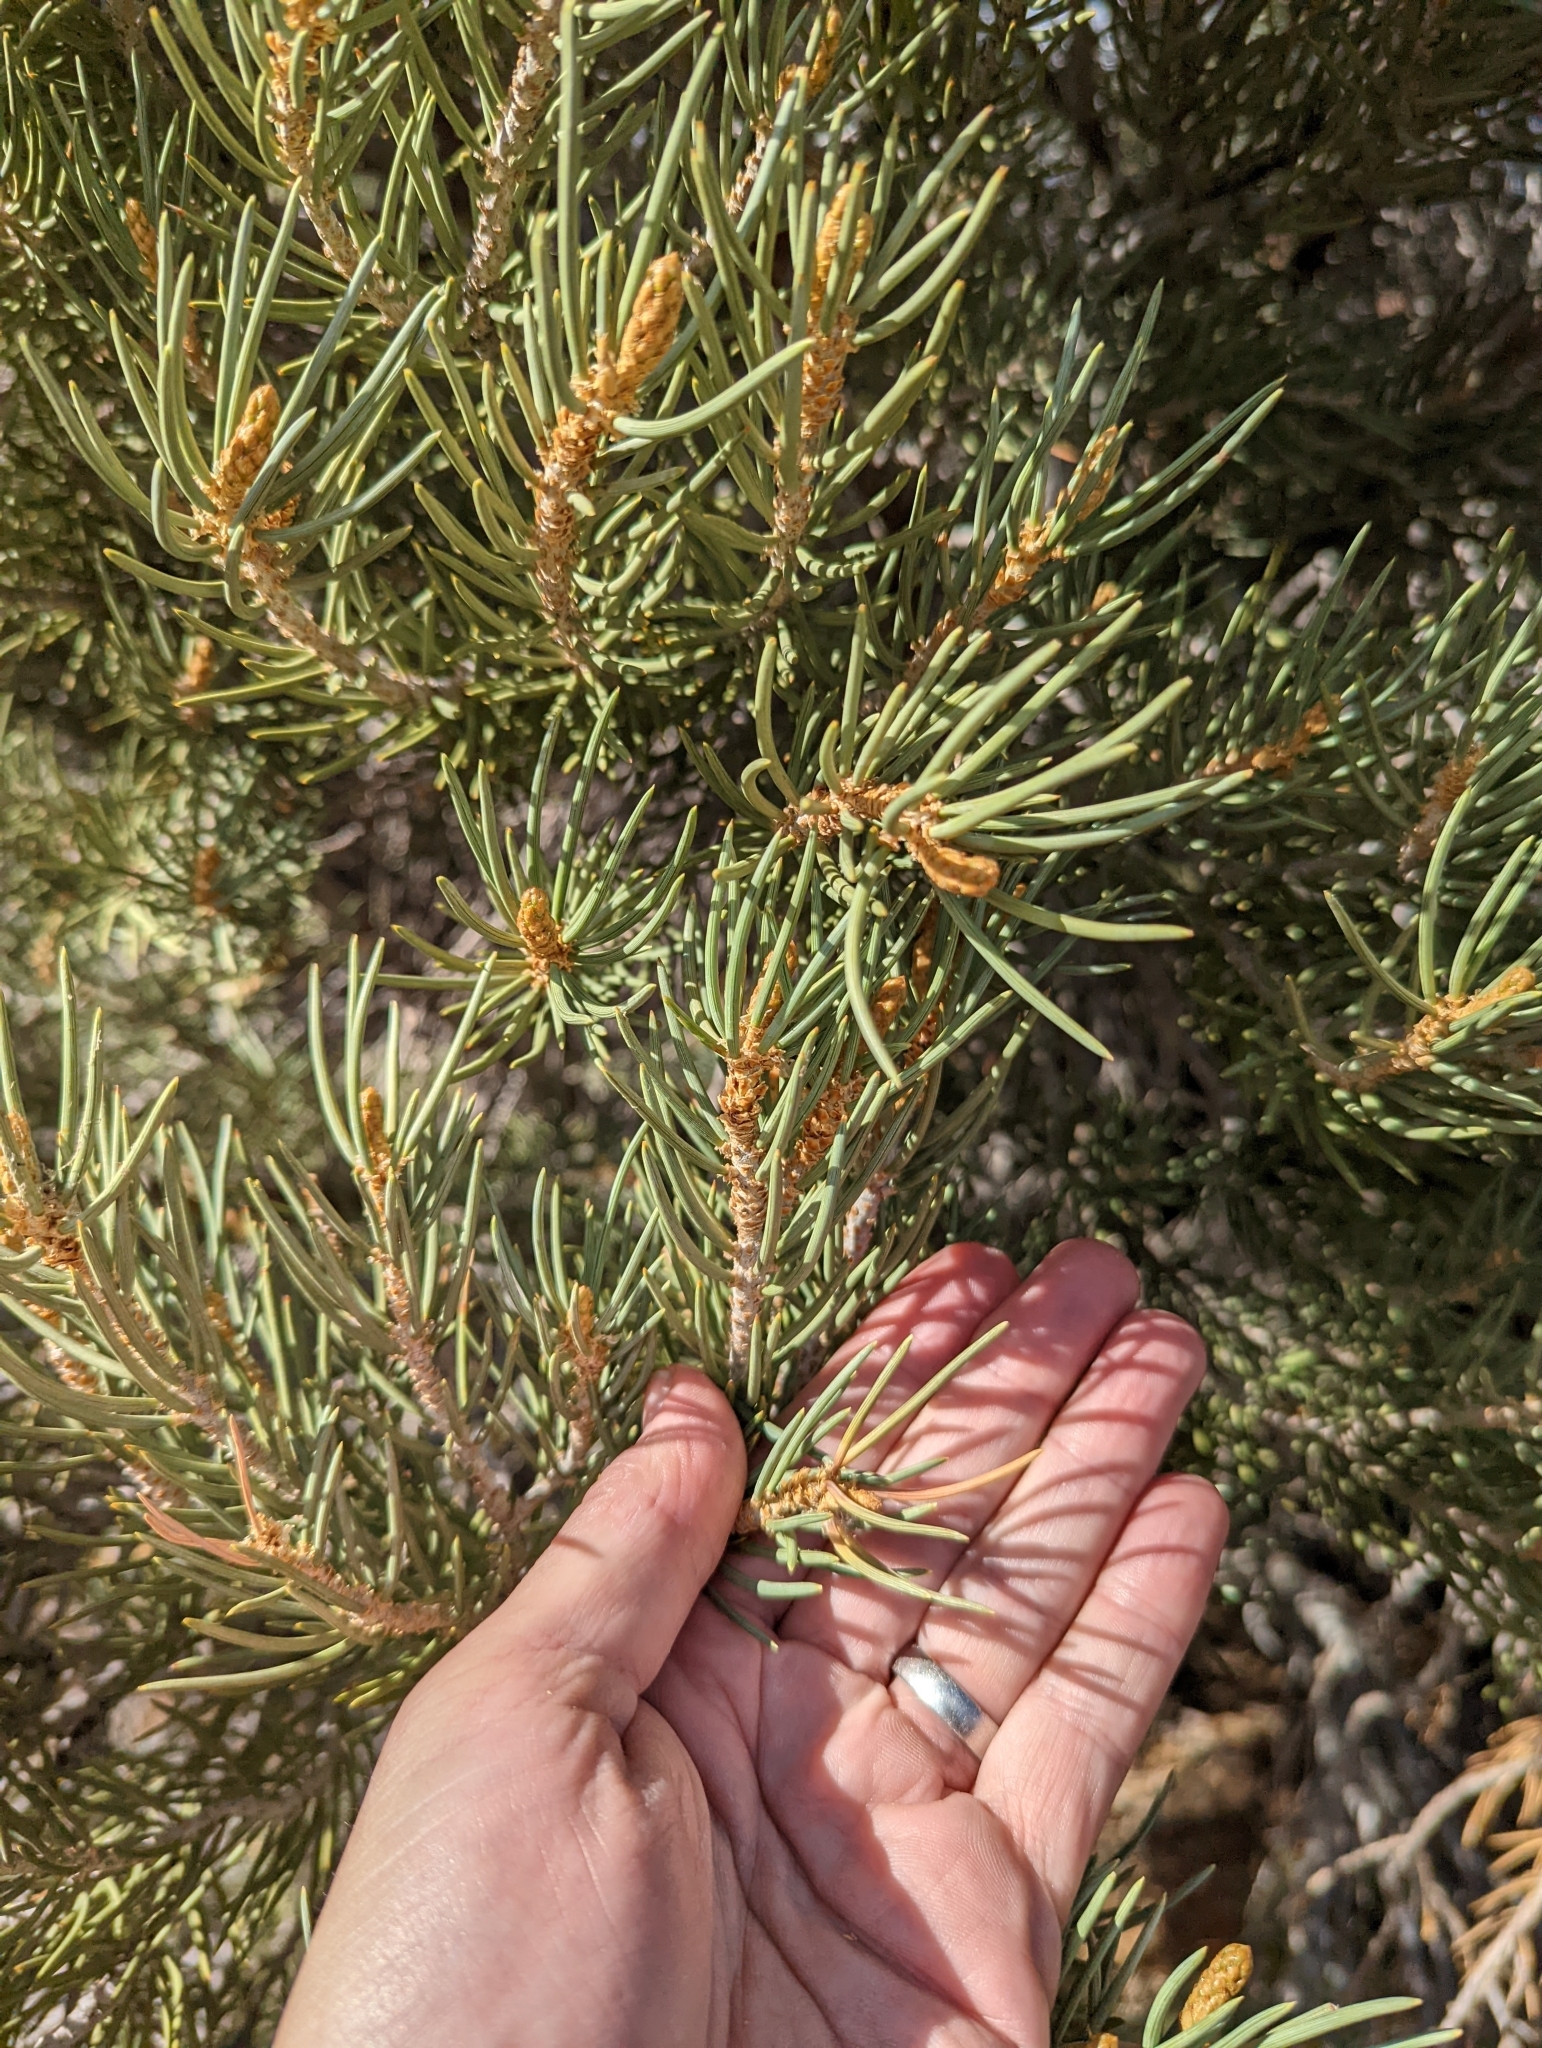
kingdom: Plantae
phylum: Tracheophyta
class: Pinopsida
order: Pinales
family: Pinaceae
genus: Pinus
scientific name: Pinus monophylla
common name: One-leaved nut pine
